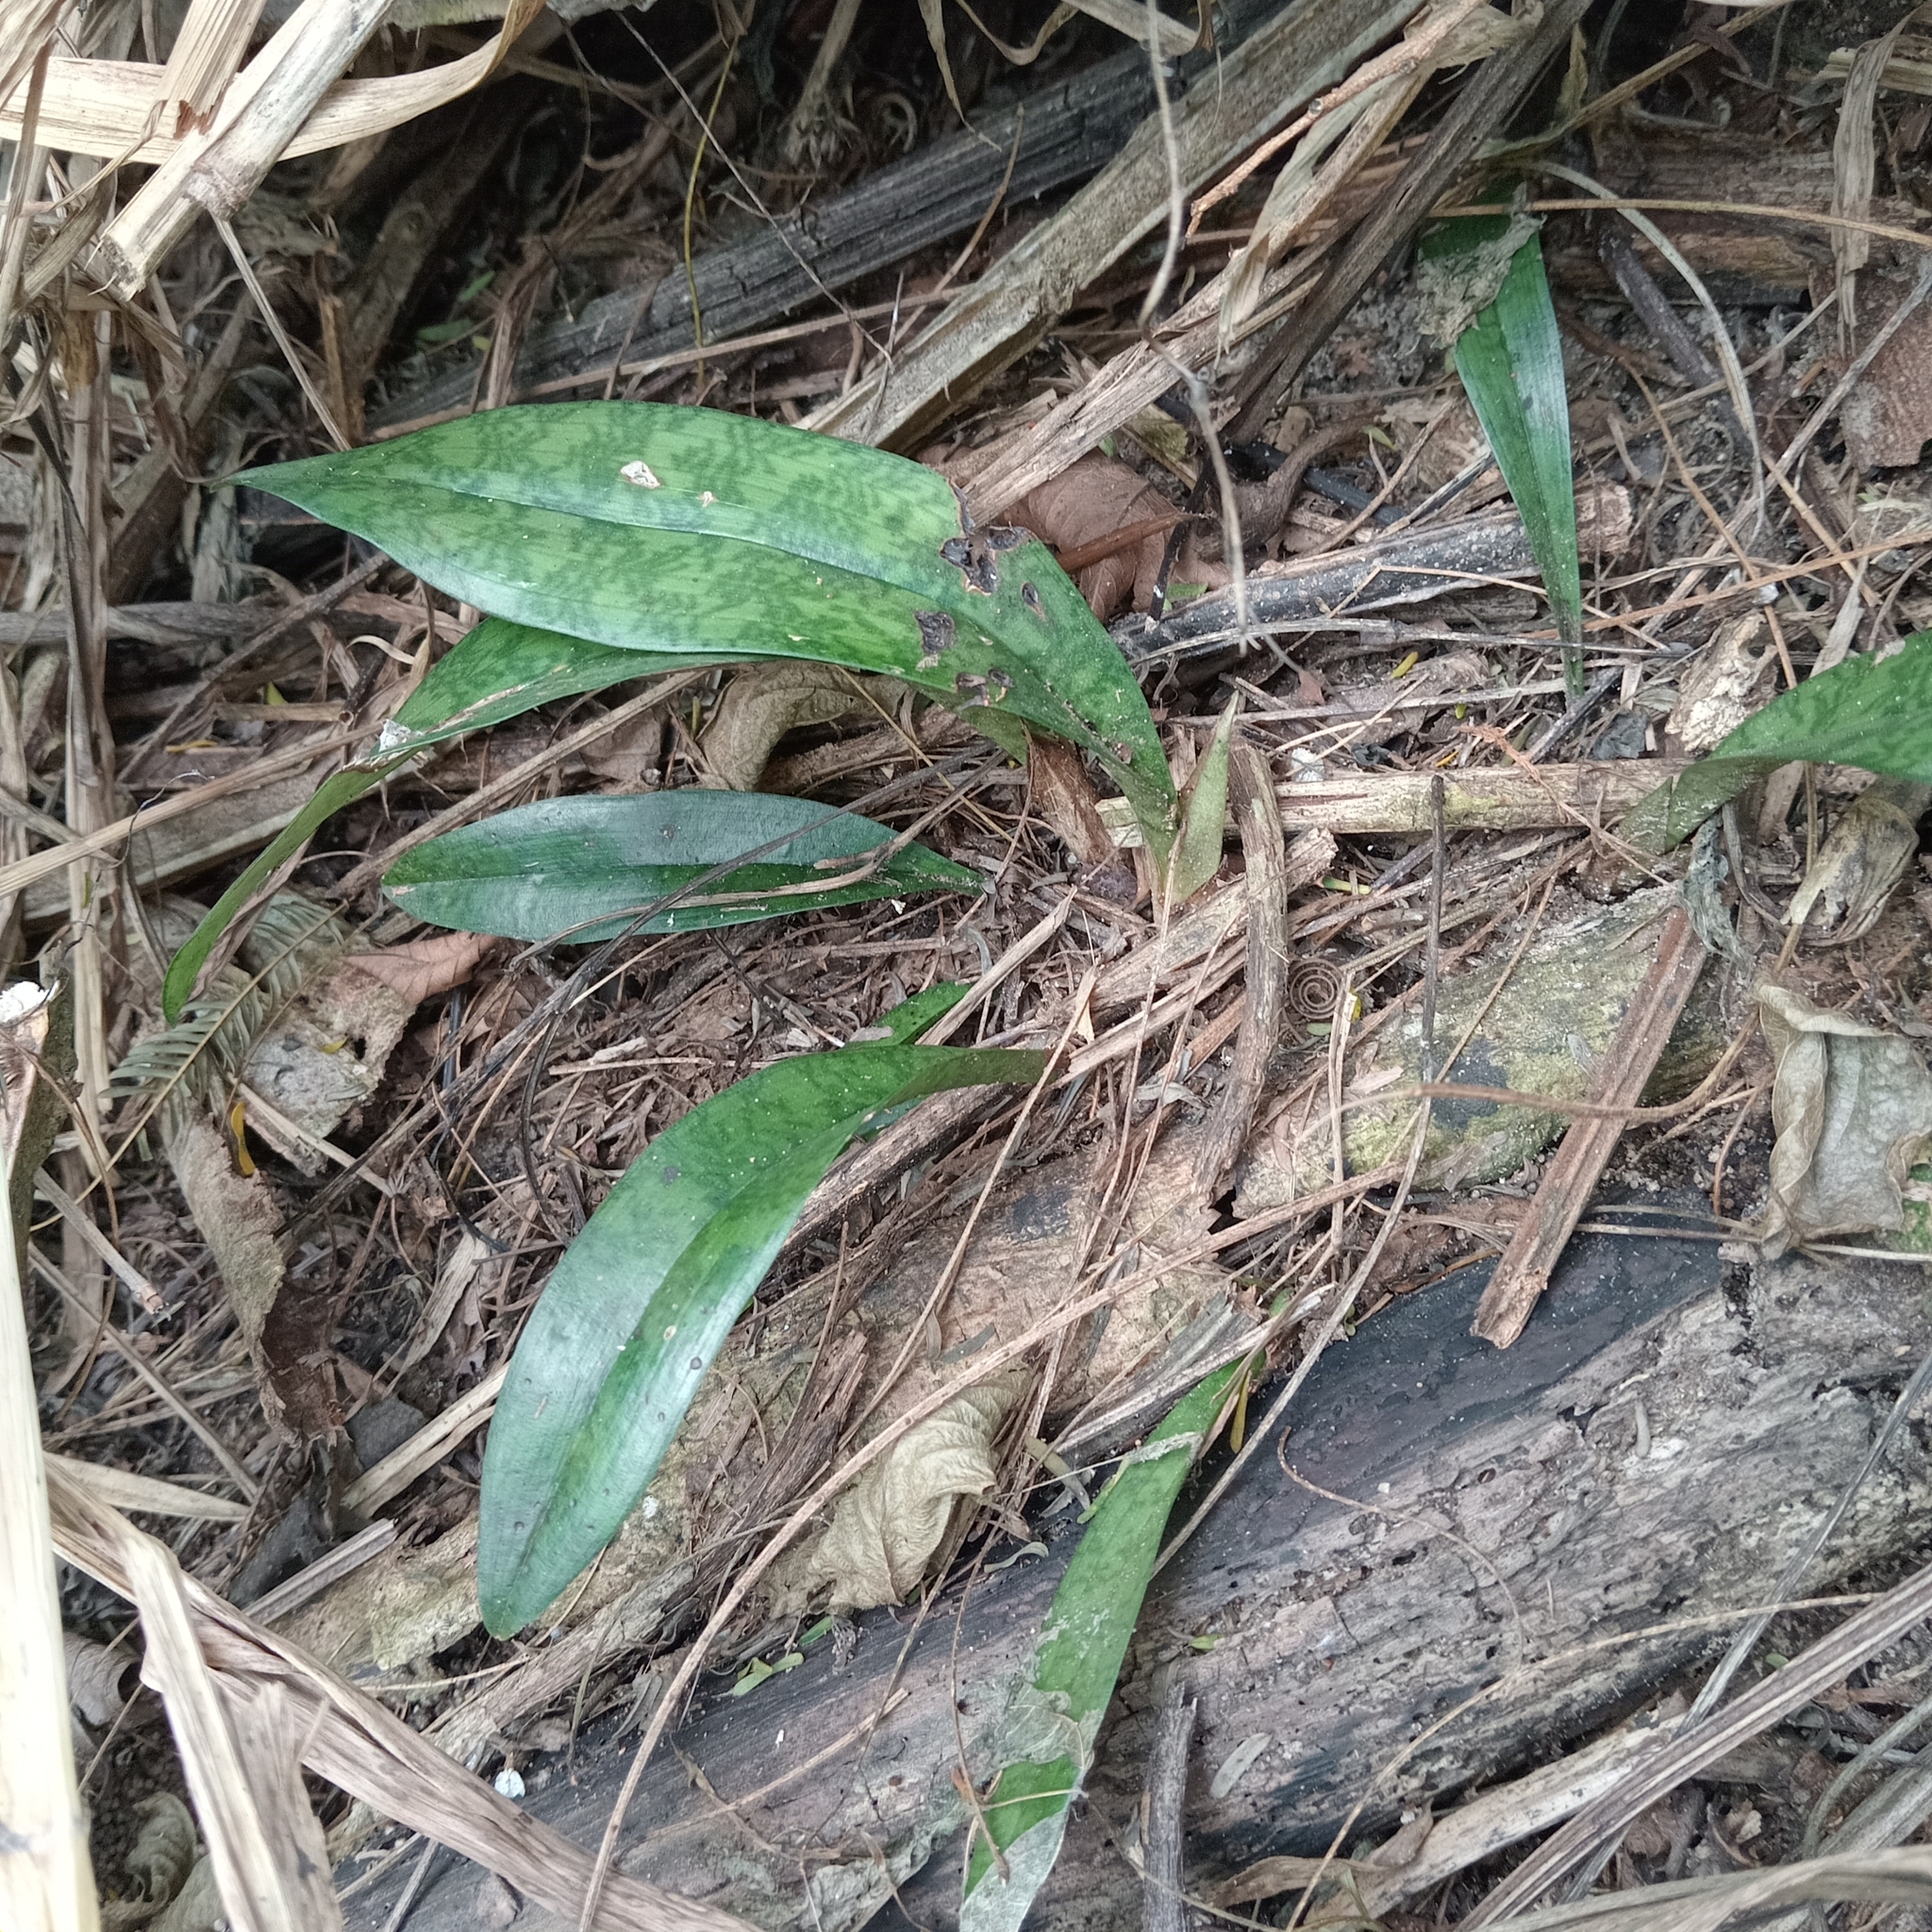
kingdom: Plantae
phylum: Tracheophyta
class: Liliopsida
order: Asparagales
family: Orchidaceae
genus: Eulophia
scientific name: Eulophia maculata
